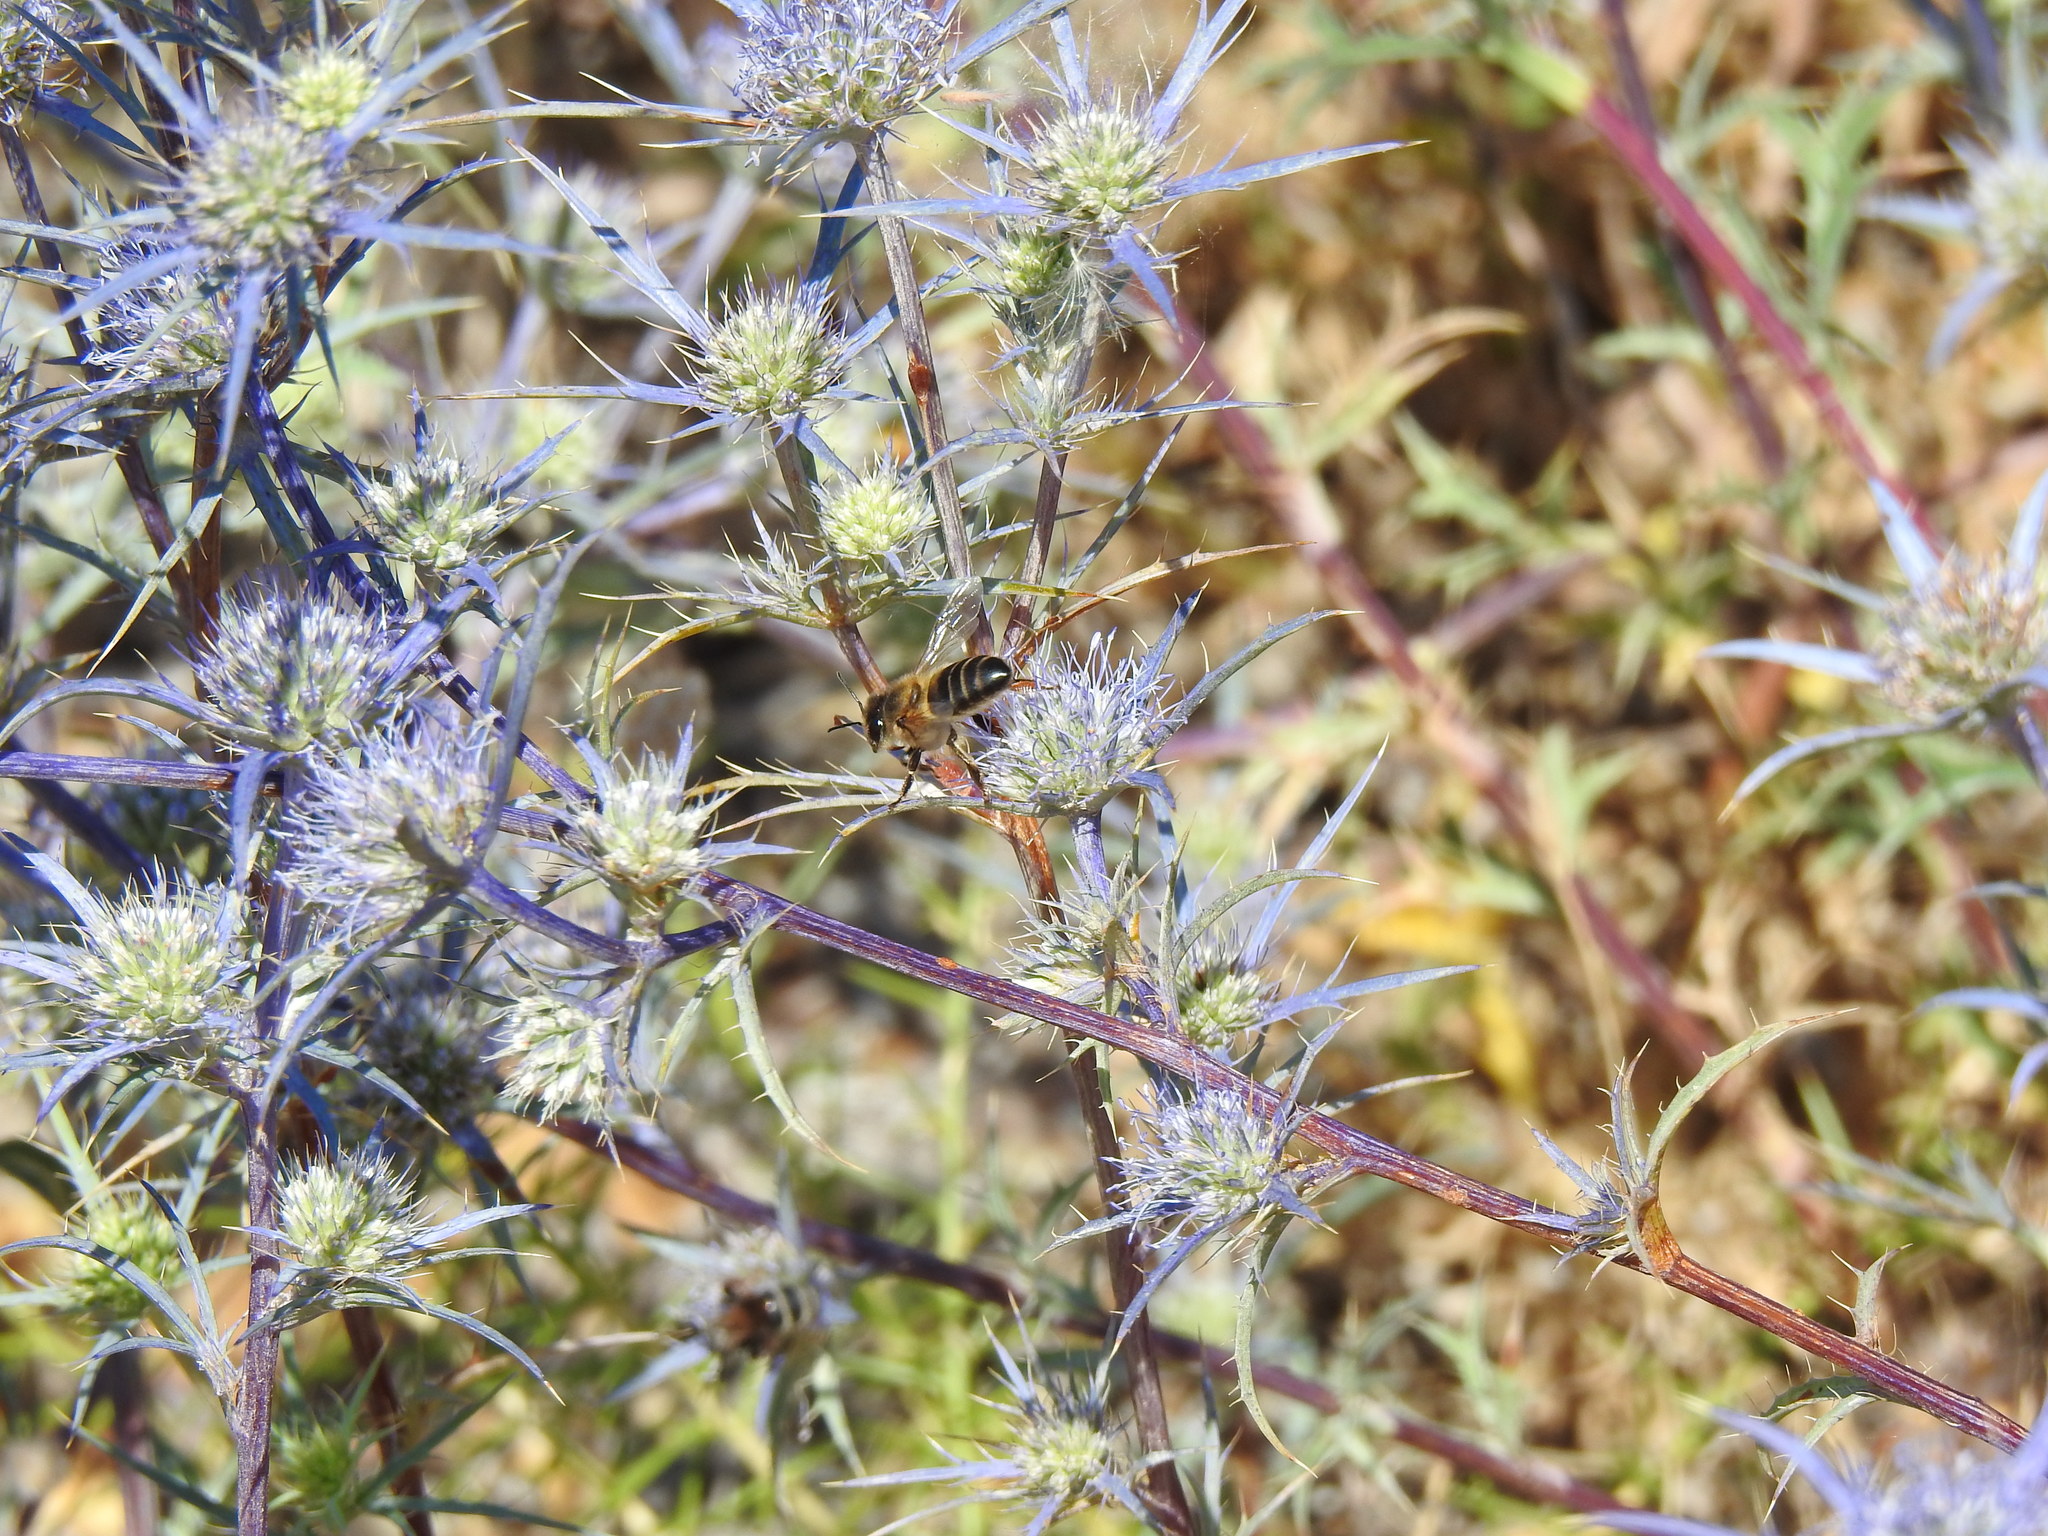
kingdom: Animalia
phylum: Arthropoda
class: Insecta
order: Hymenoptera
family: Apidae
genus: Apis
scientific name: Apis mellifera
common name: Honey bee
